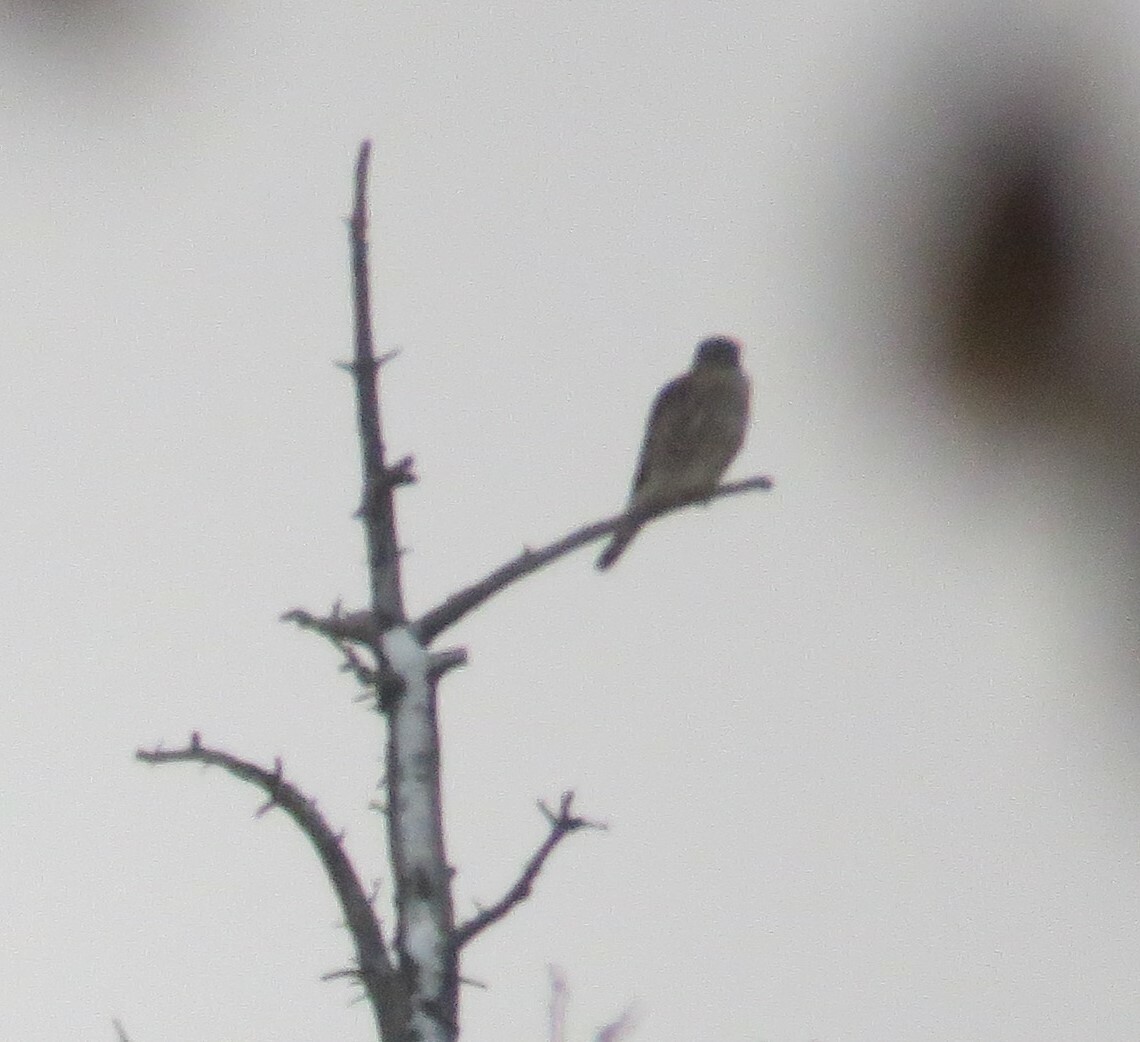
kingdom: Animalia
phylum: Chordata
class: Aves
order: Falconiformes
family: Falconidae
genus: Falco
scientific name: Falco columbarius
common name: Merlin
